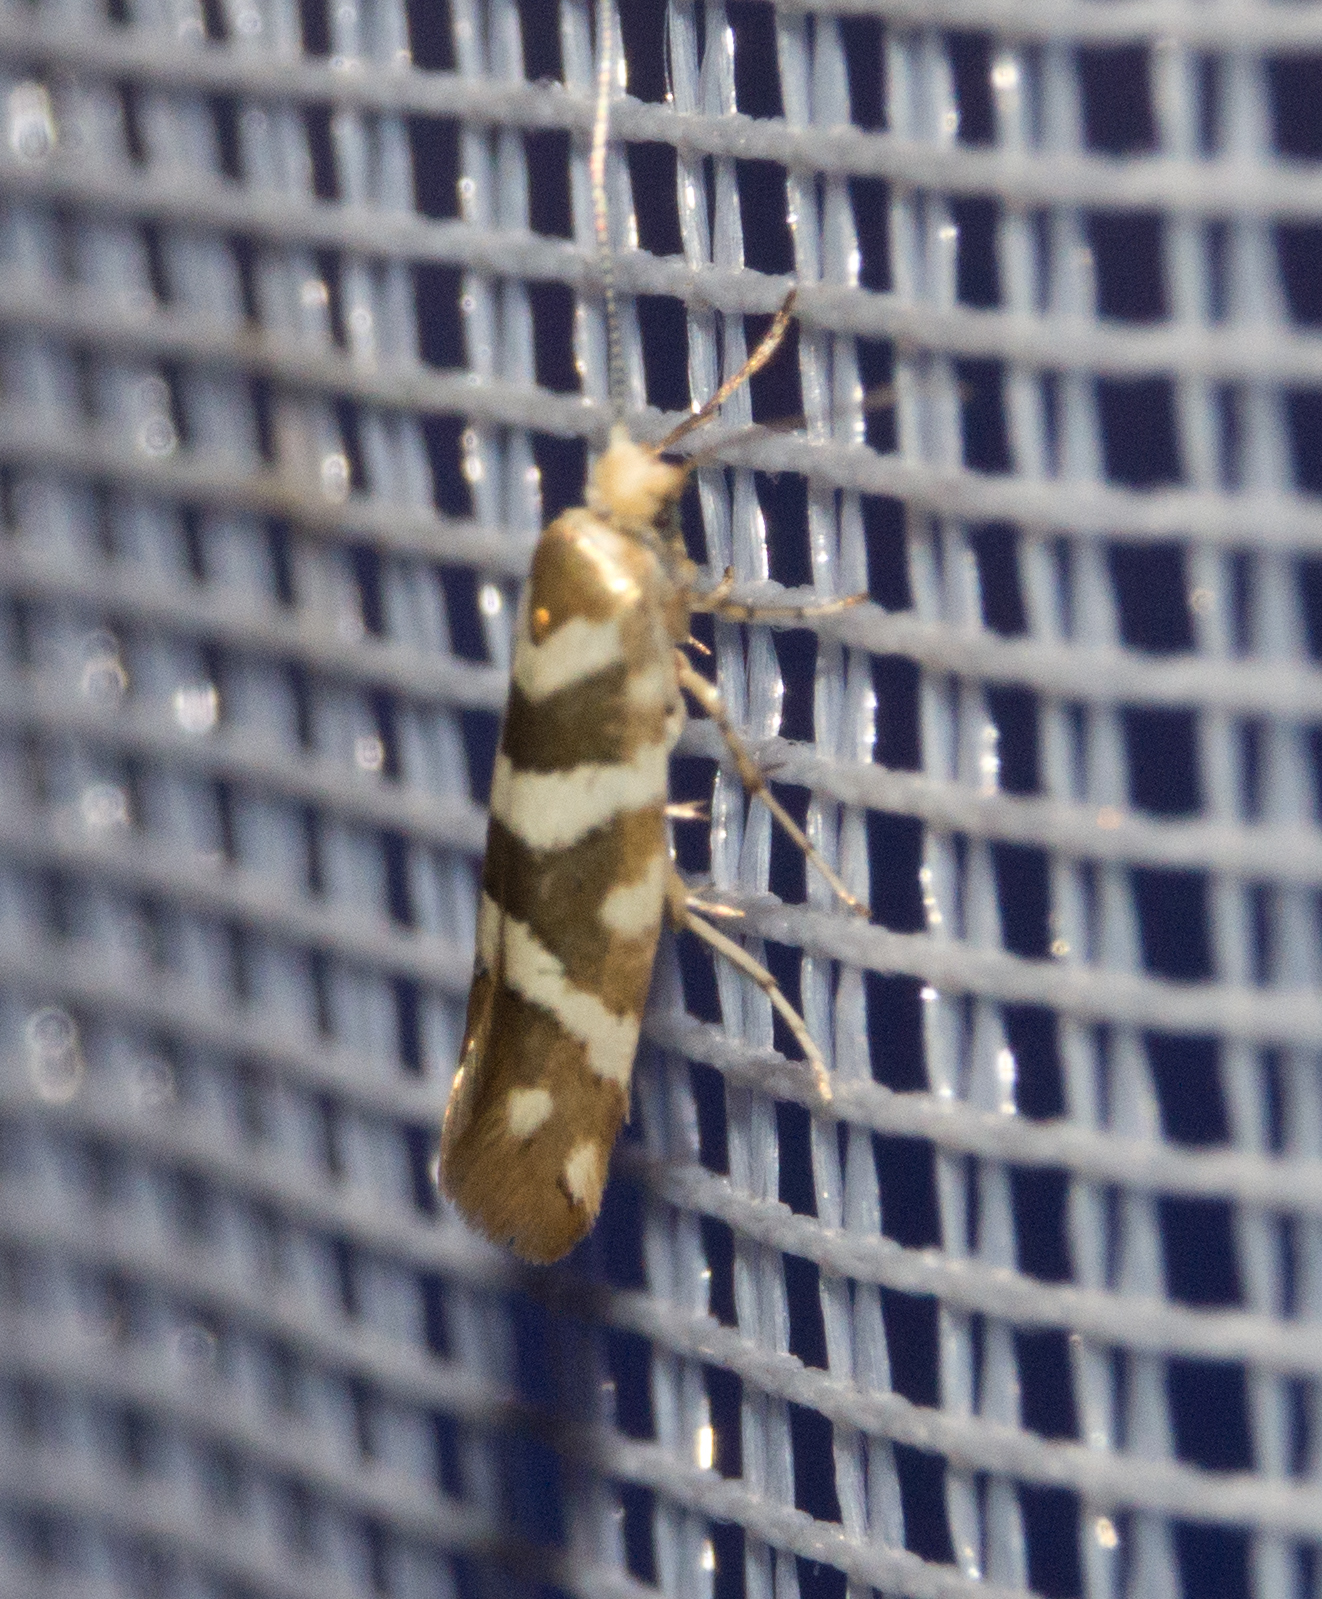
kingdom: Animalia
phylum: Arthropoda
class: Insecta
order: Lepidoptera
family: Argyresthiidae
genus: Argyresthia
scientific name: Argyresthia goedartella
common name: Golden argent
